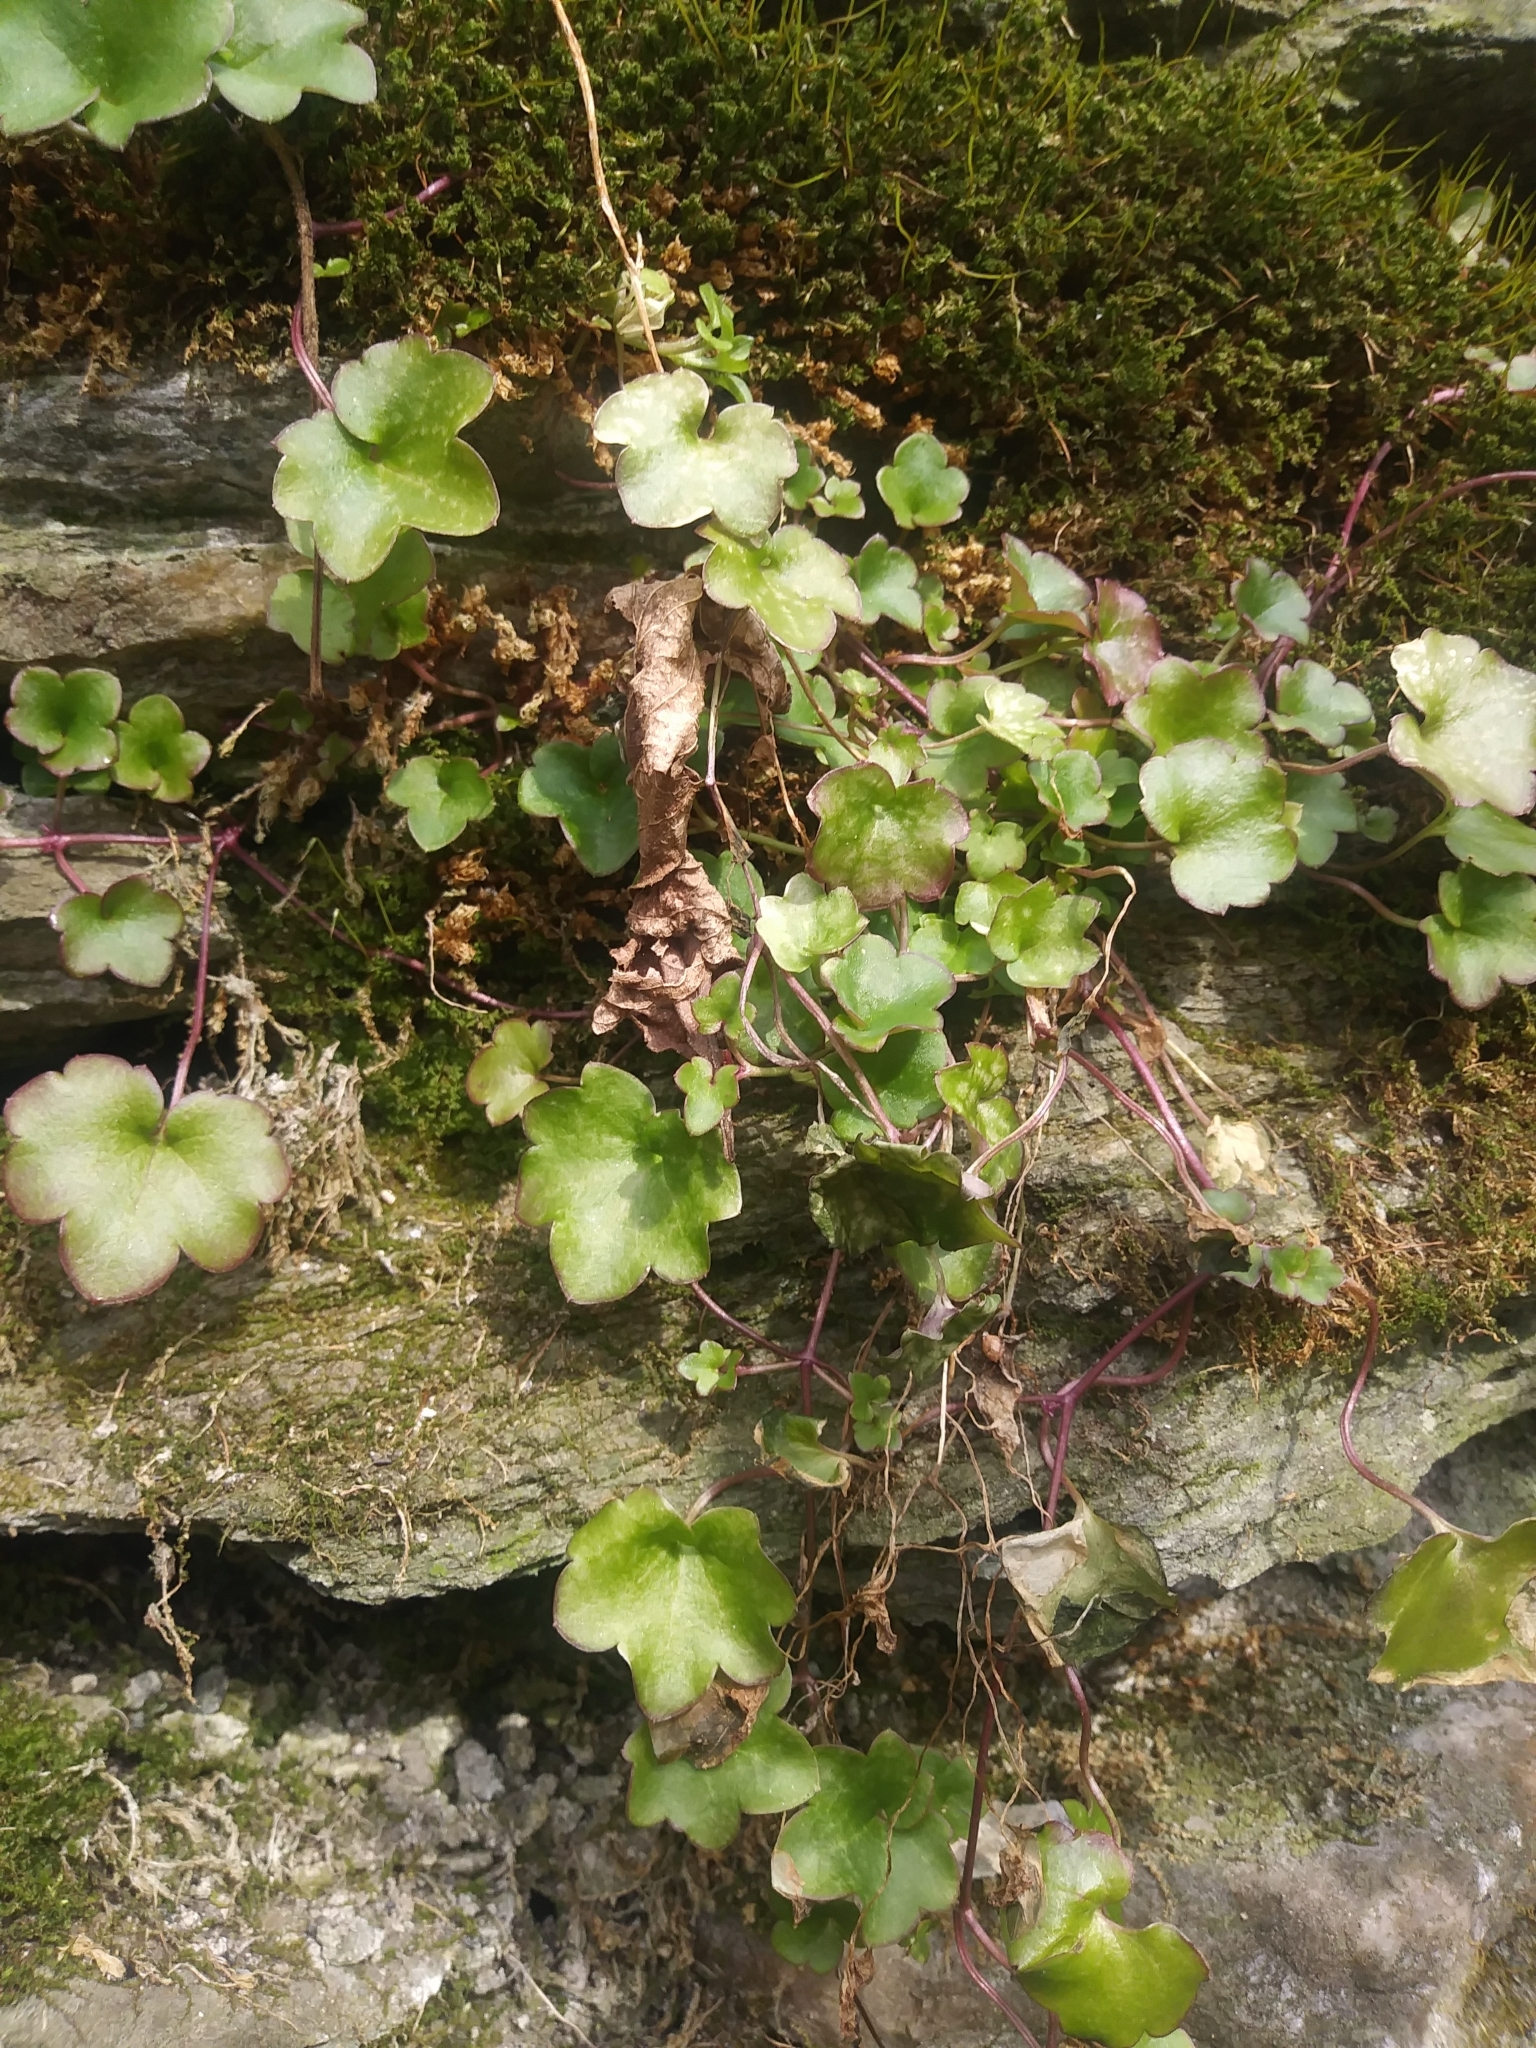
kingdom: Plantae
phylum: Tracheophyta
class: Magnoliopsida
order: Lamiales
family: Plantaginaceae
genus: Cymbalaria
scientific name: Cymbalaria muralis
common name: Ivy-leaved toadflax
